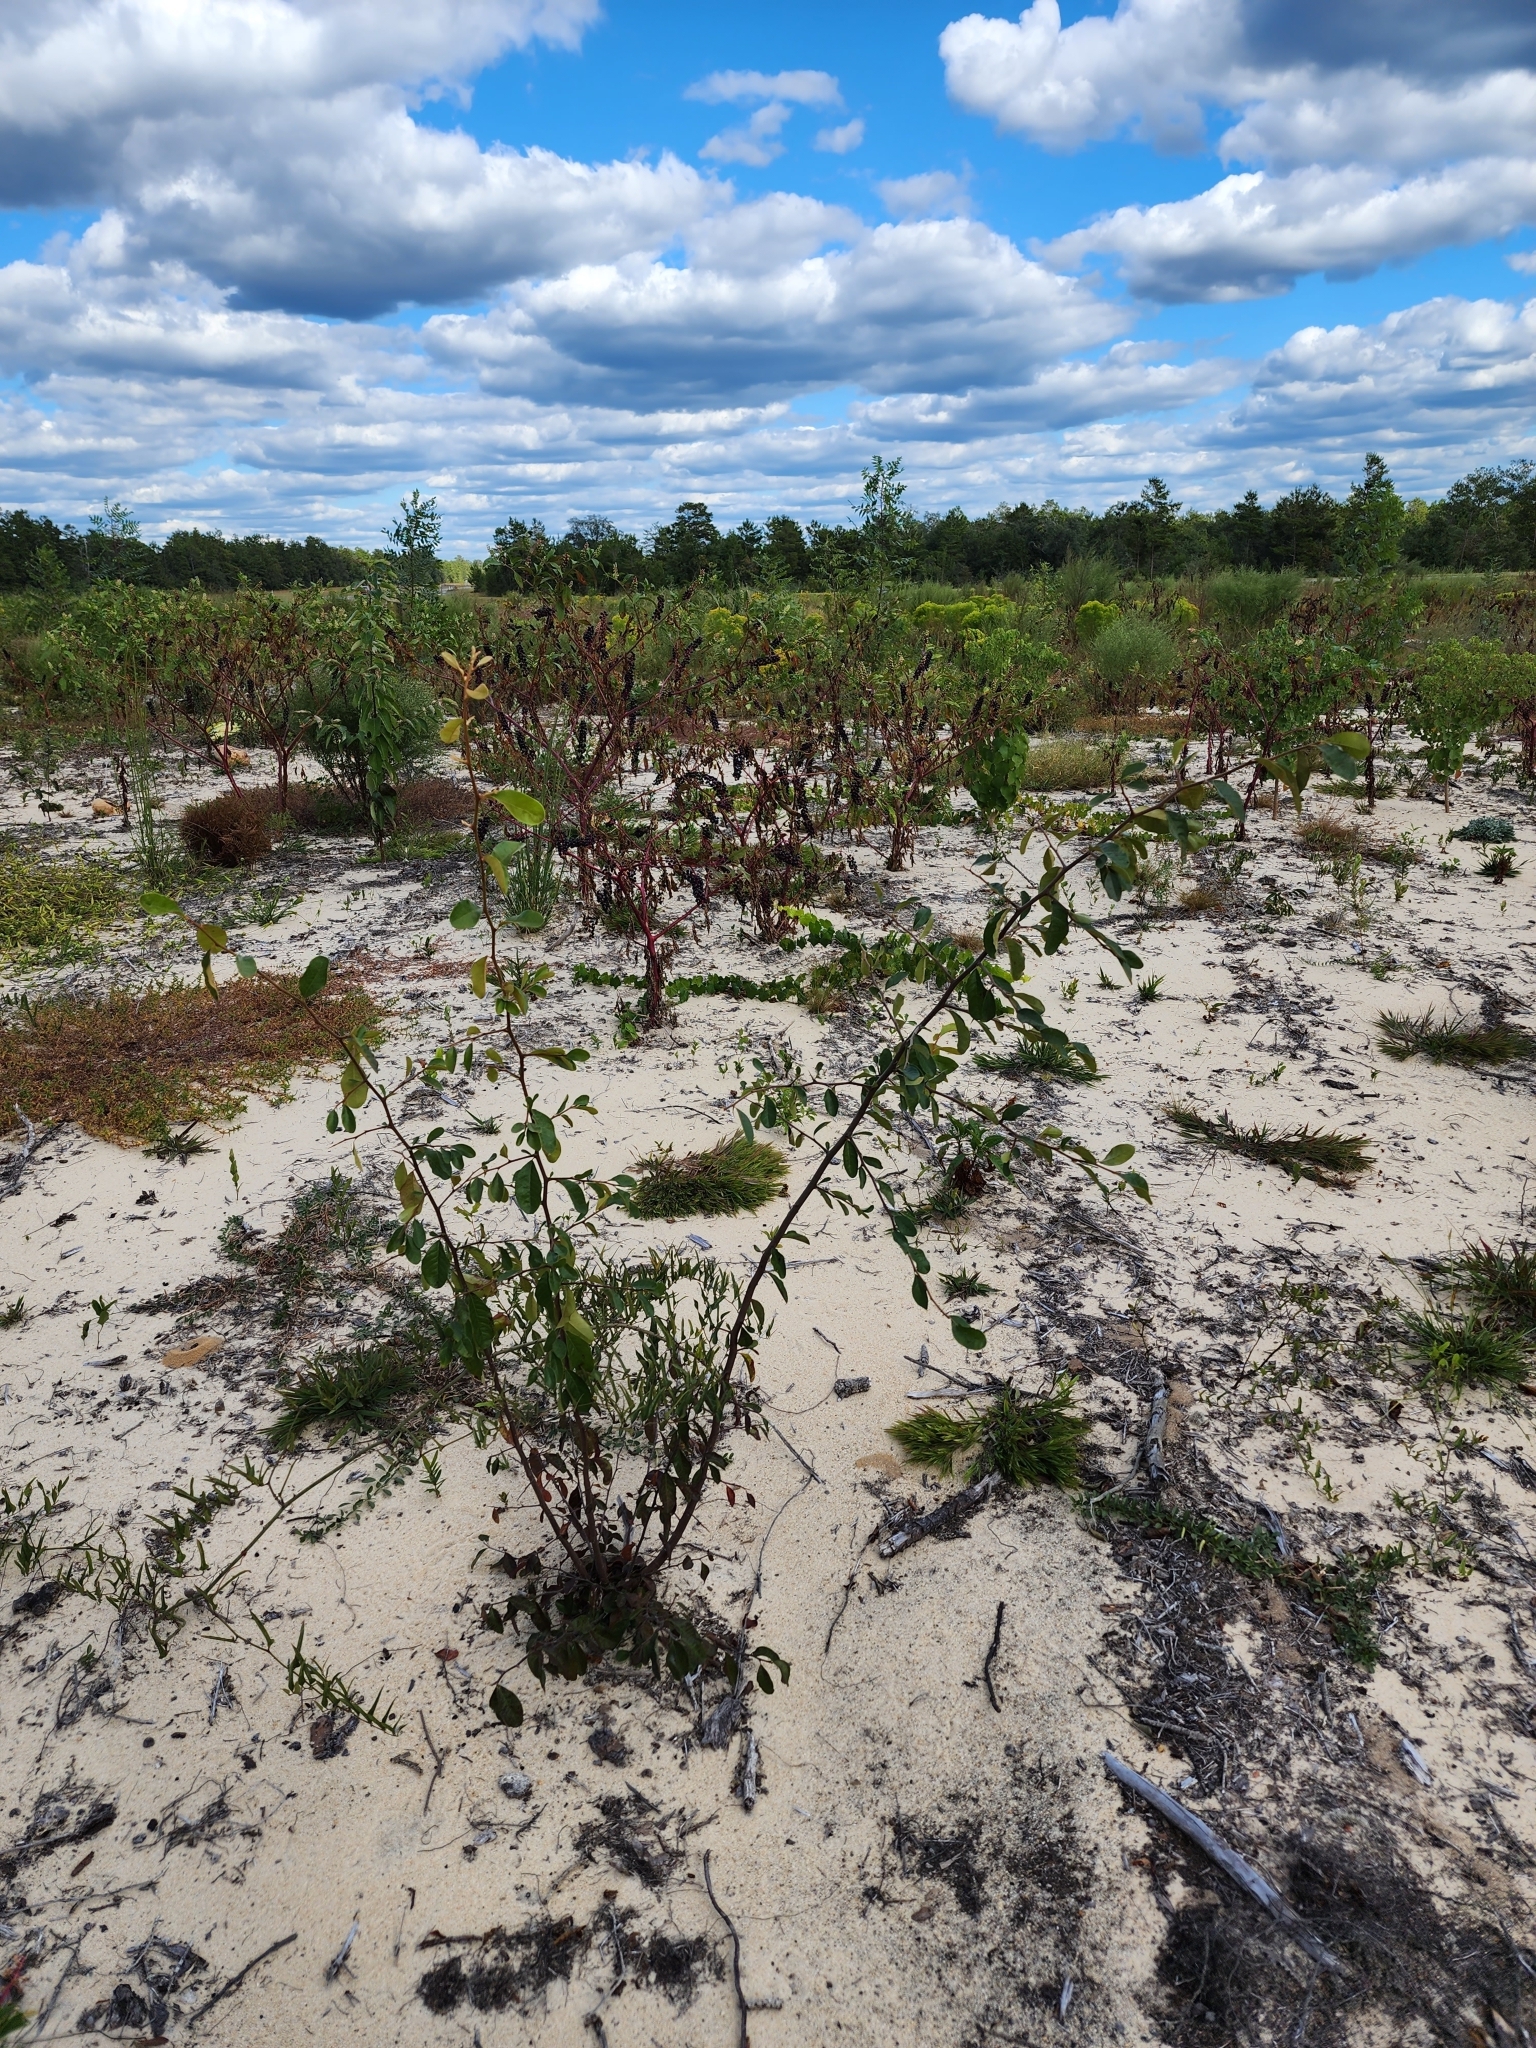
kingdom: Plantae
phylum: Tracheophyta
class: Magnoliopsida
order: Ericales
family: Sapotaceae
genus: Sideroxylon
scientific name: Sideroxylon lanuginosum
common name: Chittamwood
